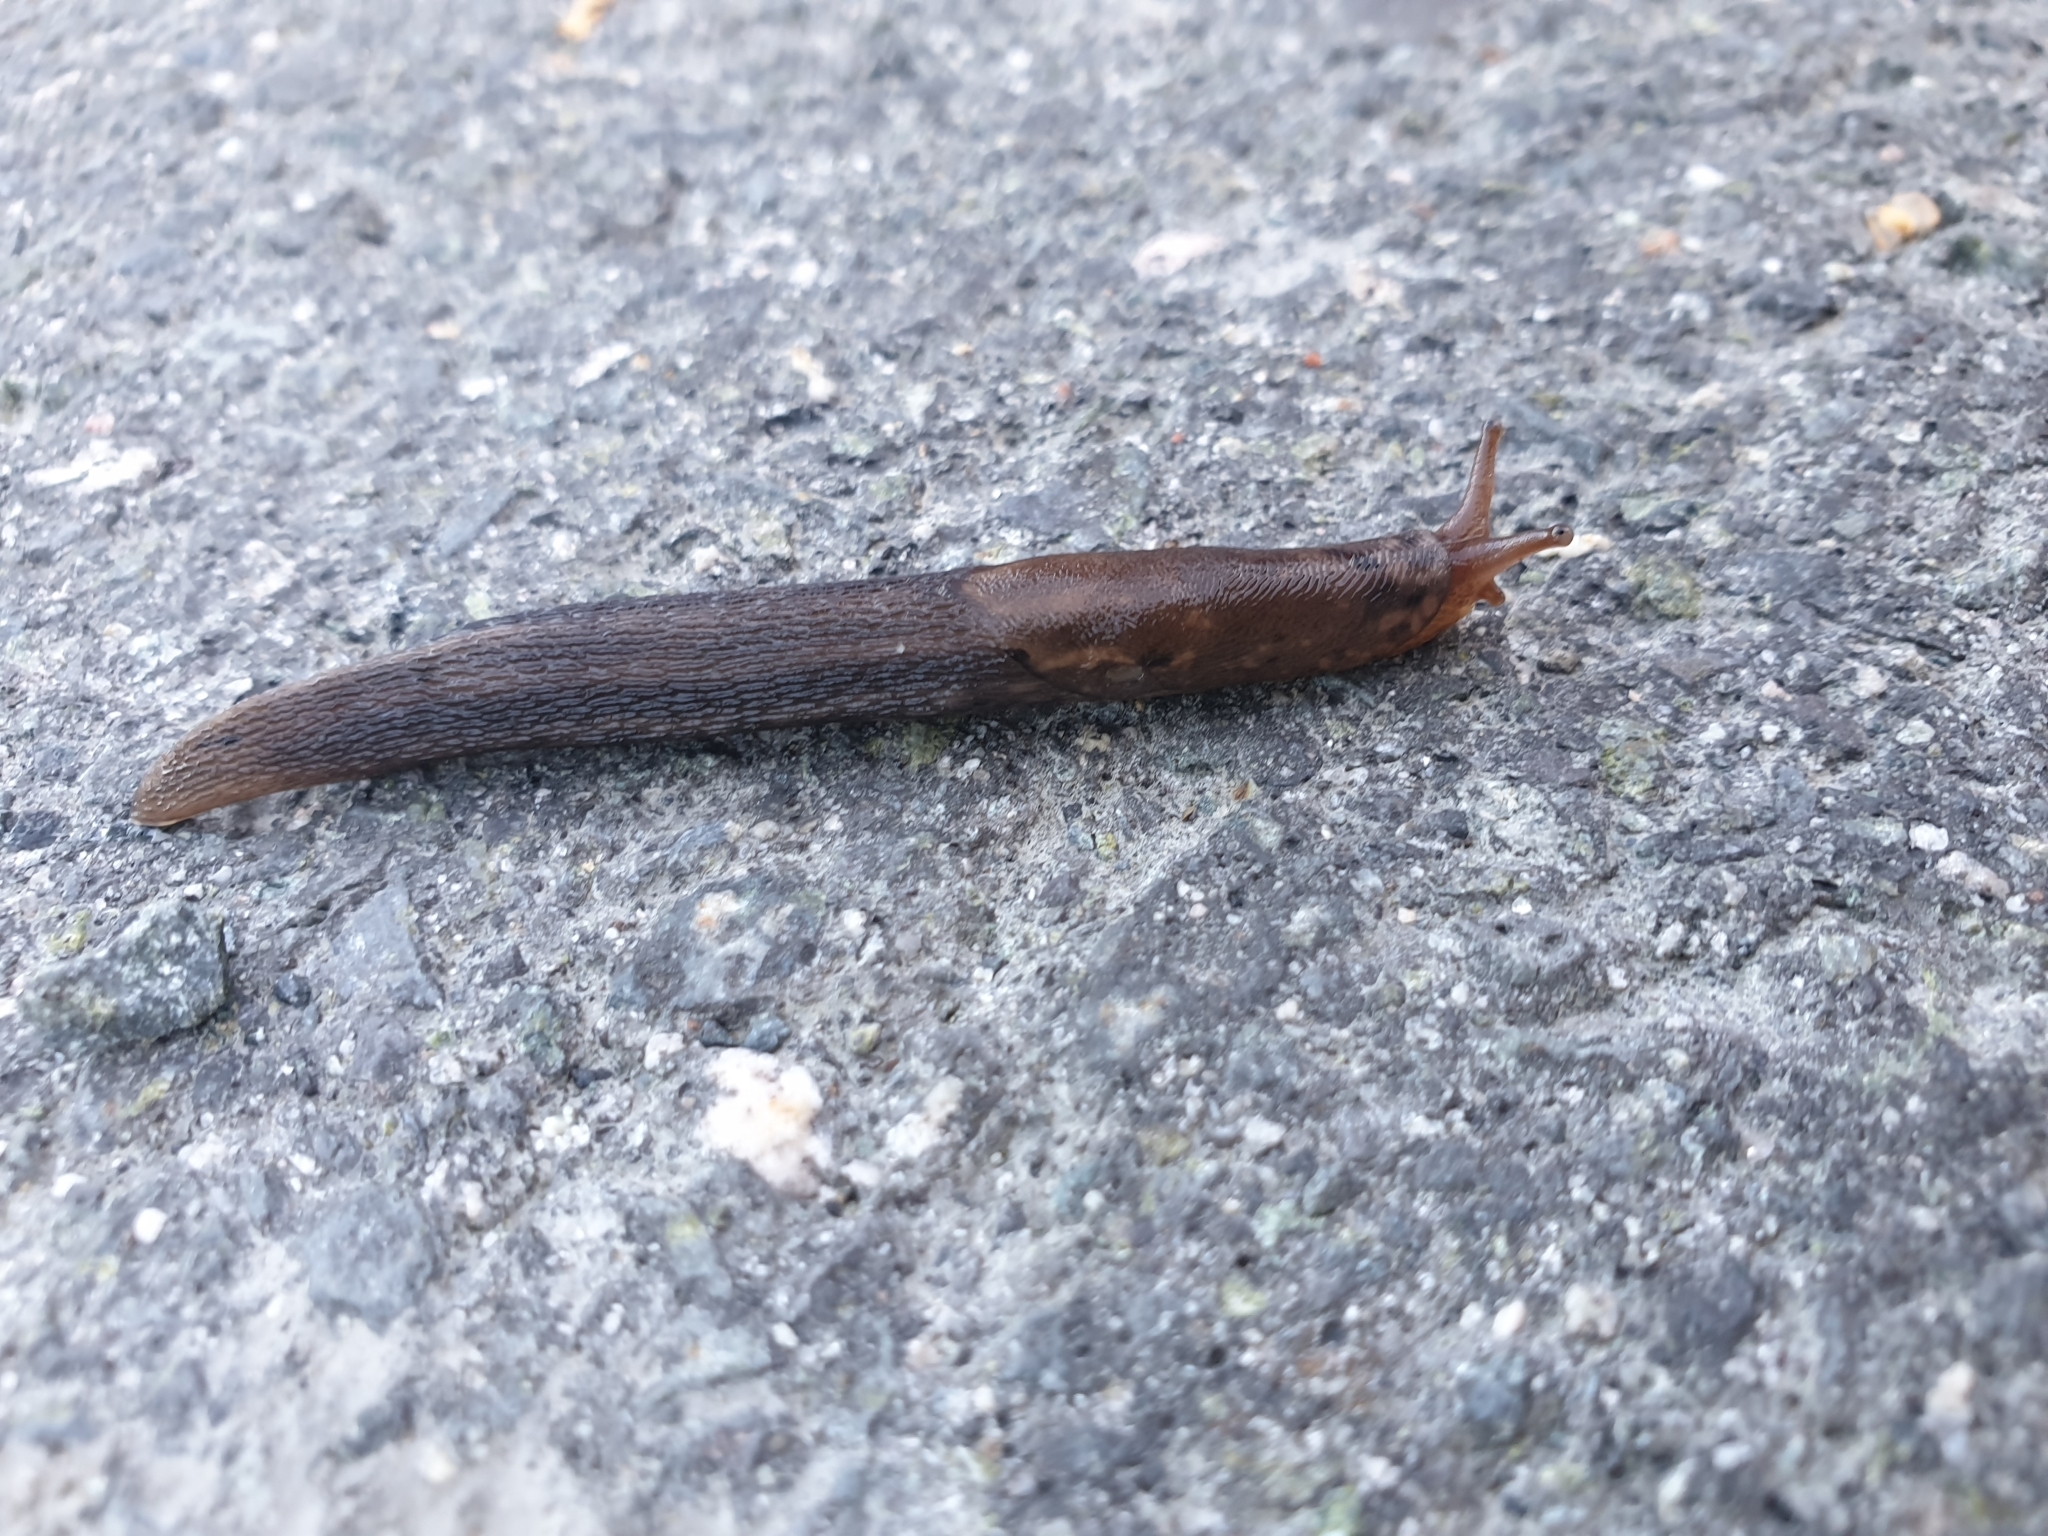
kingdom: Animalia
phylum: Mollusca
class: Gastropoda
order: Stylommatophora
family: Limacidae
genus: Limax
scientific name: Limax cinereoniger
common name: Ash-black slug
